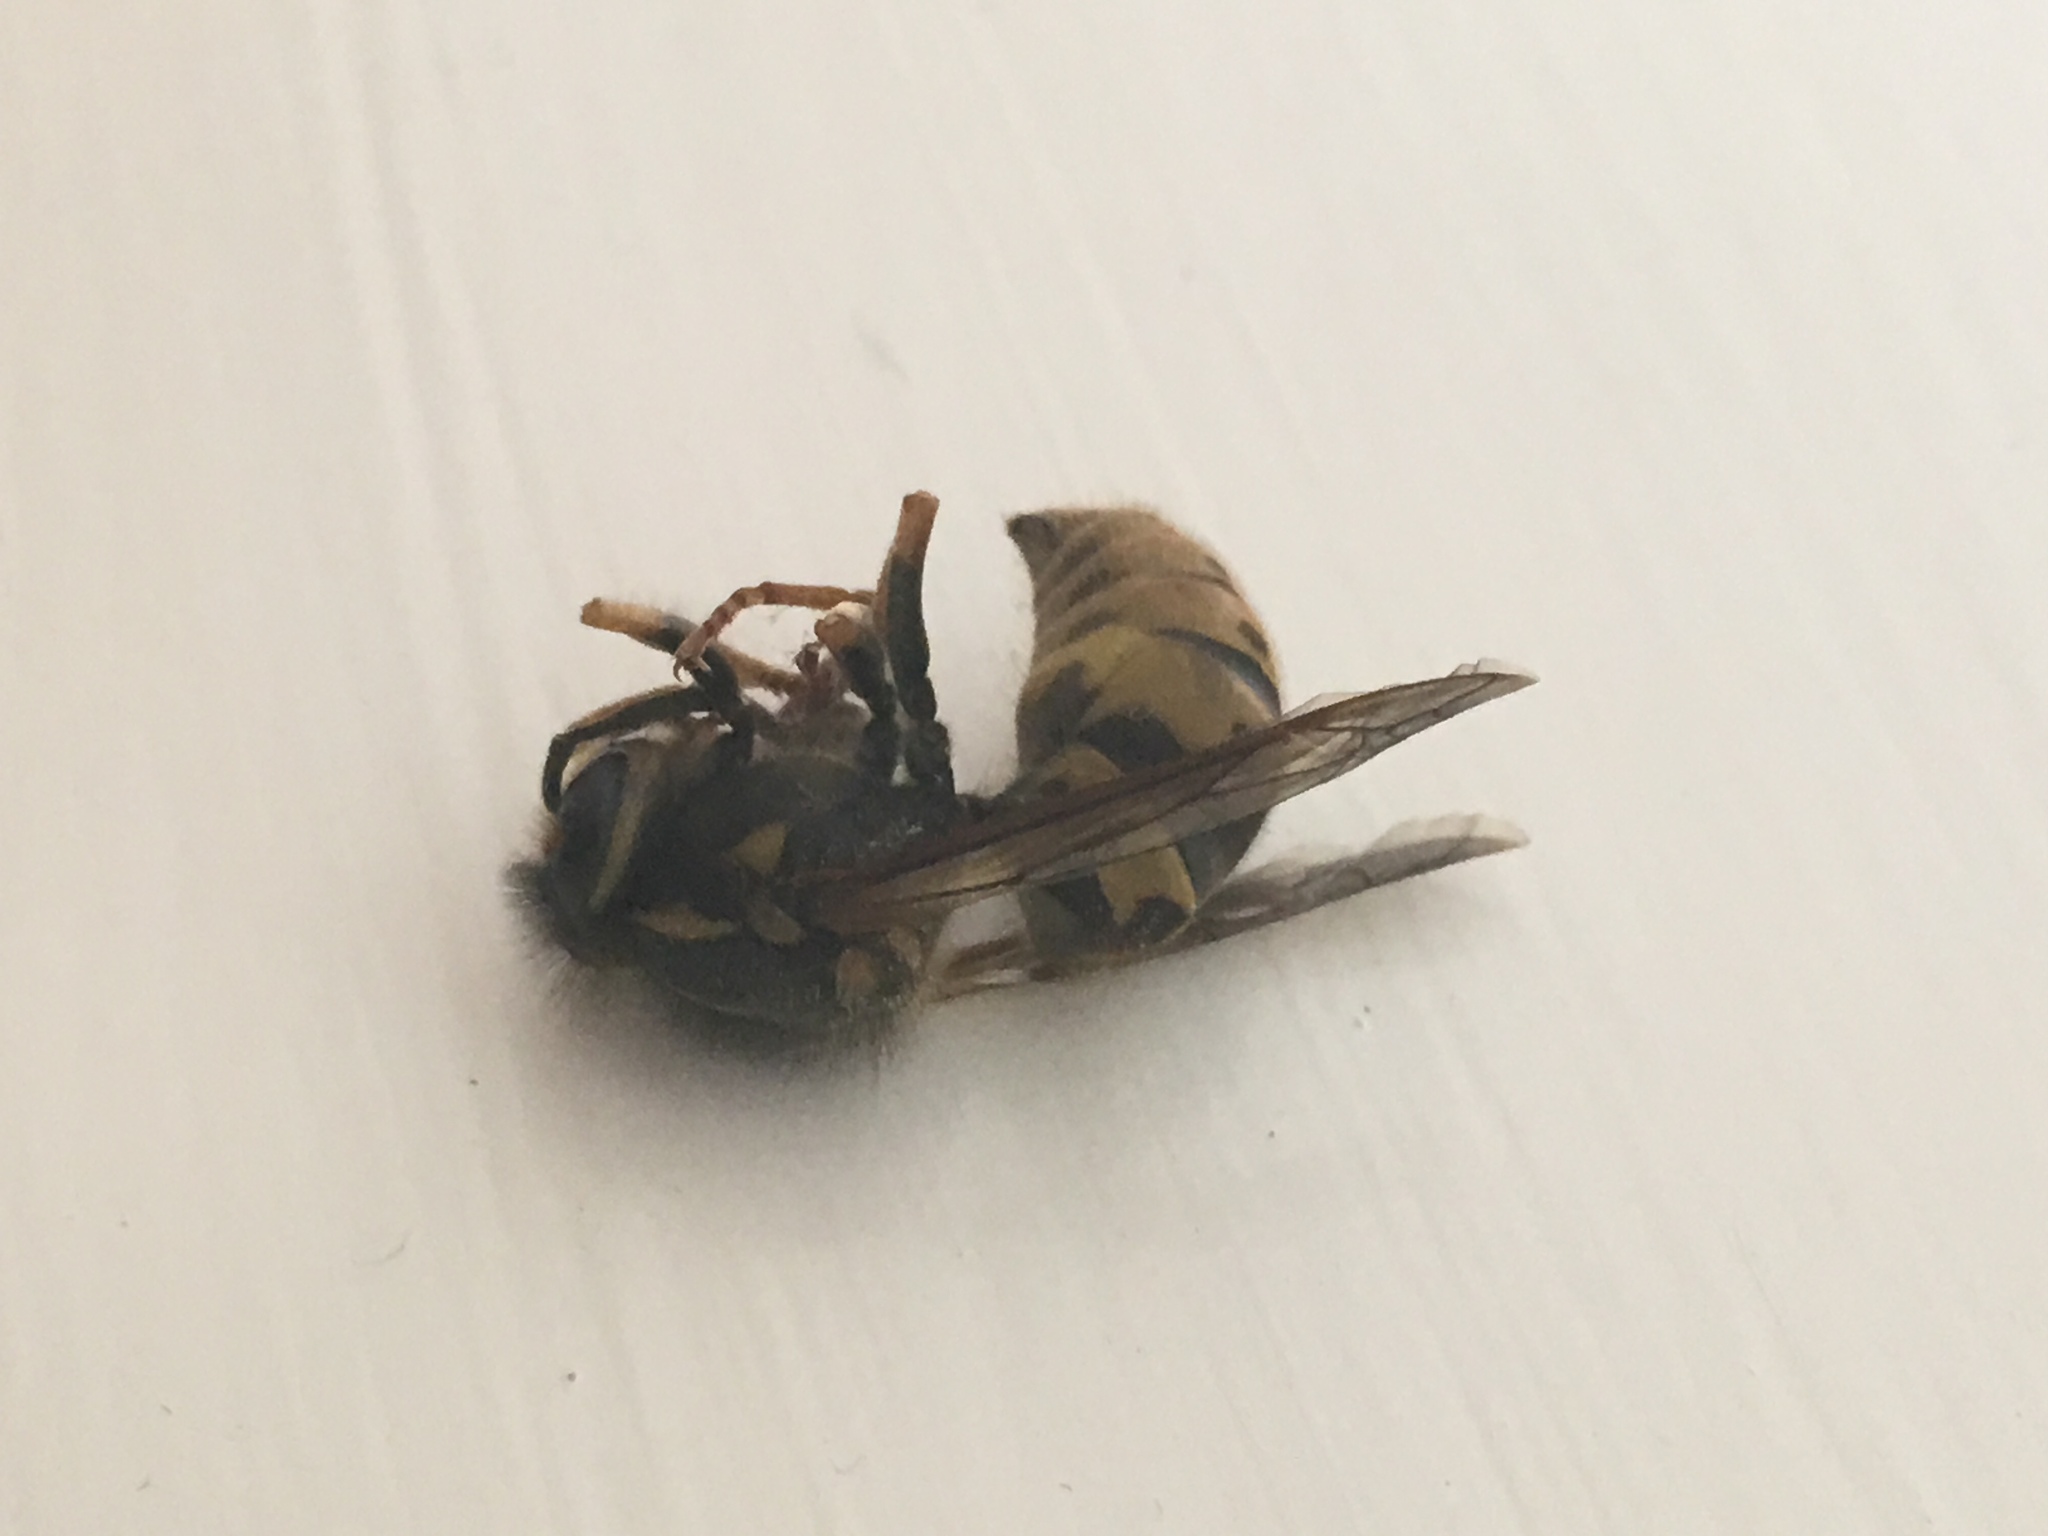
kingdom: Animalia
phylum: Arthropoda
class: Insecta
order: Hymenoptera
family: Vespidae
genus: Vespula
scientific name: Vespula germanica
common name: German wasp
